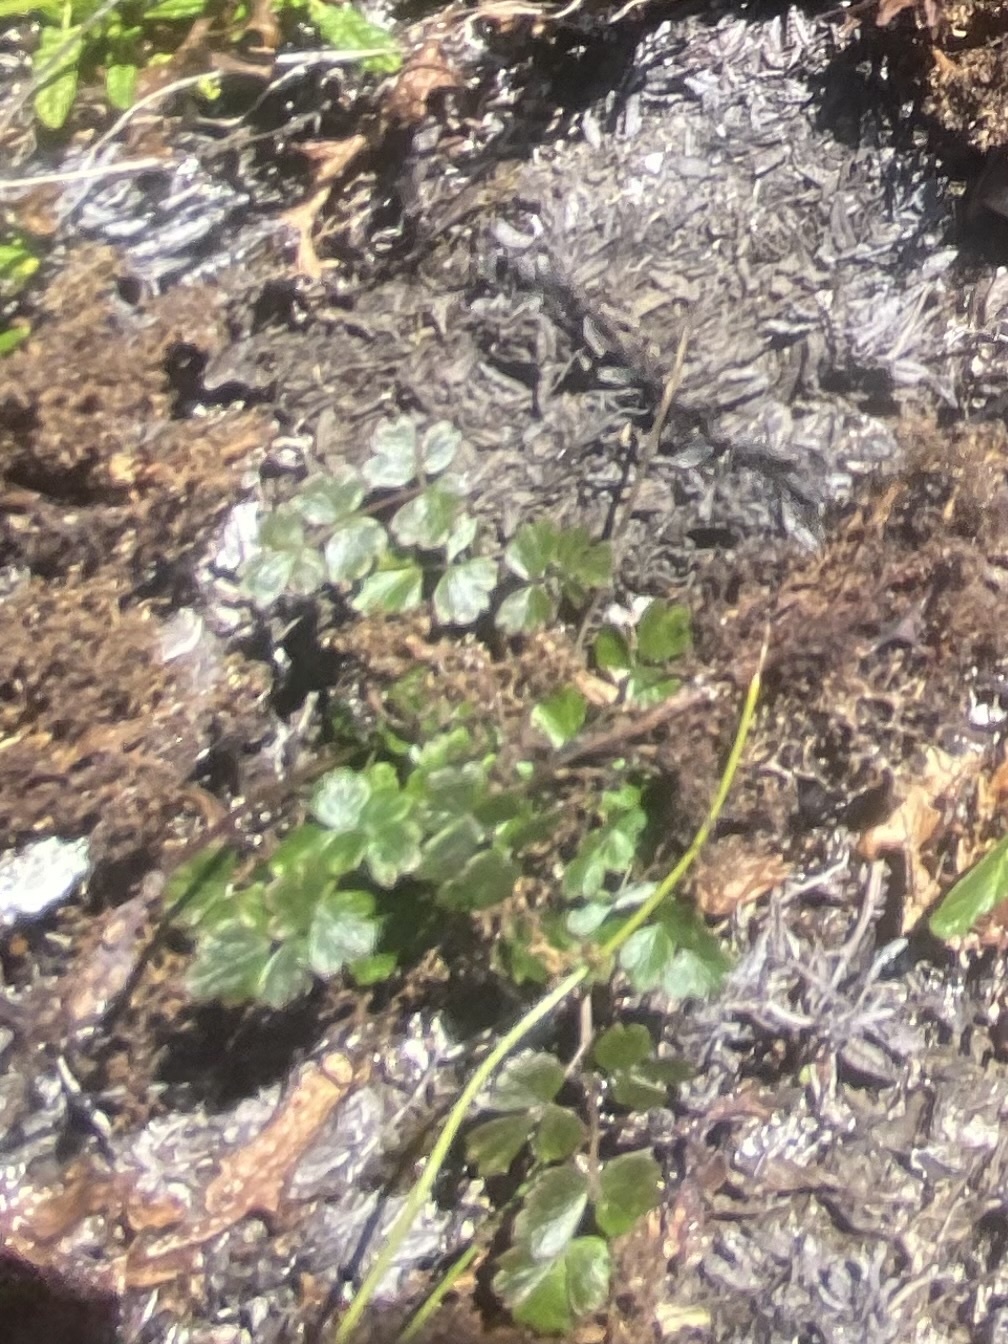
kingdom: Plantae
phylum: Tracheophyta
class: Magnoliopsida
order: Ranunculales
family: Ranunculaceae
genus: Thalictrum
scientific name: Thalictrum alpinum
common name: Alpine meadow-rue
